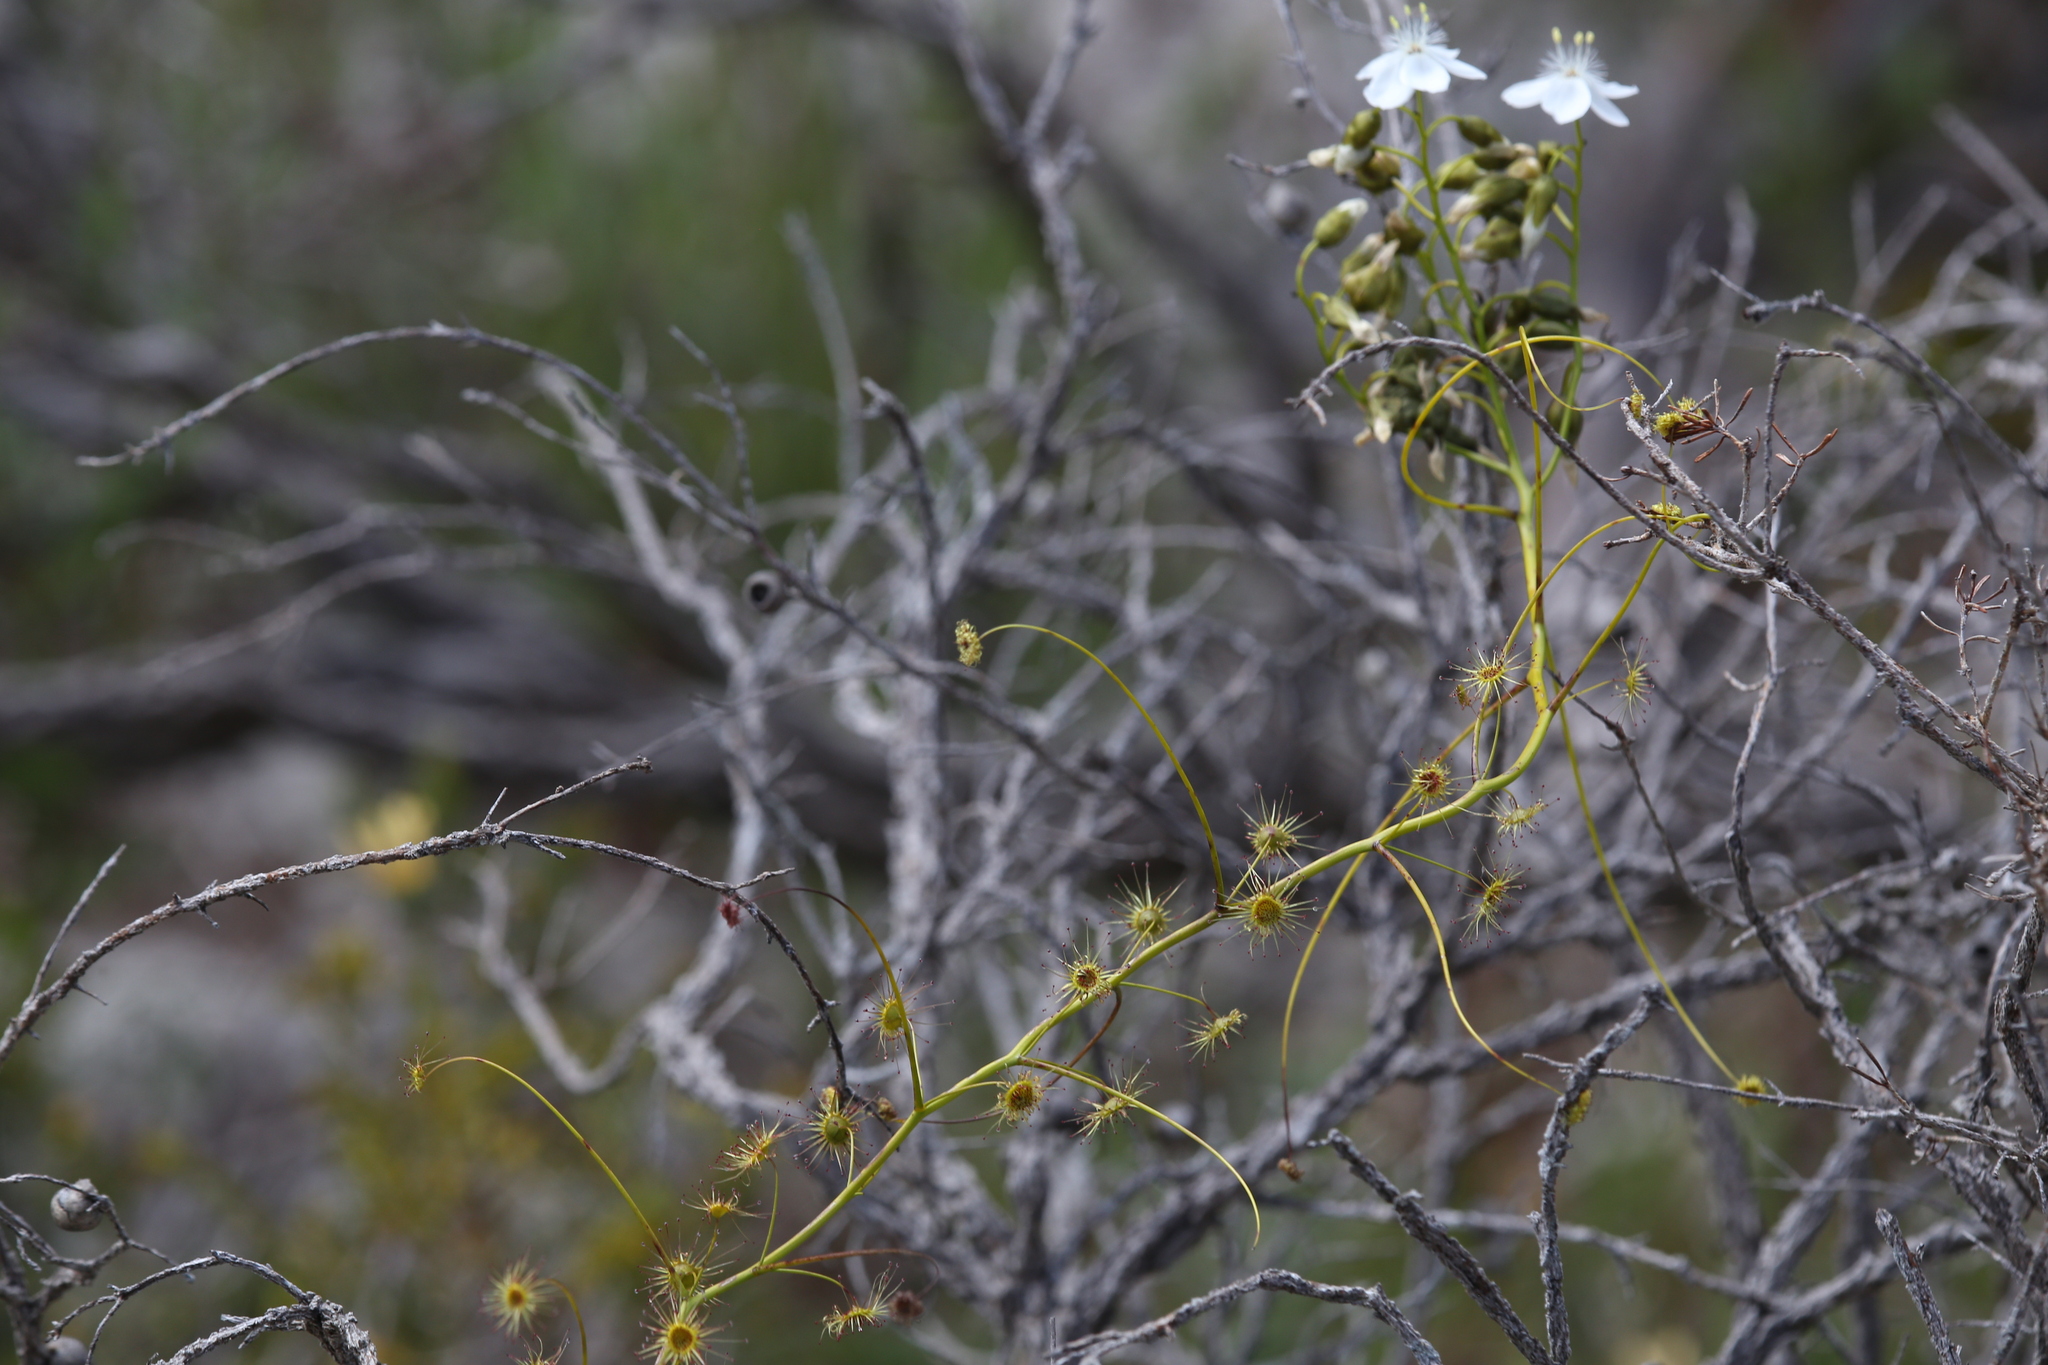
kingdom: Plantae
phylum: Tracheophyta
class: Magnoliopsida
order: Caryophyllales
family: Droseraceae
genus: Drosera
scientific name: Drosera pallida
